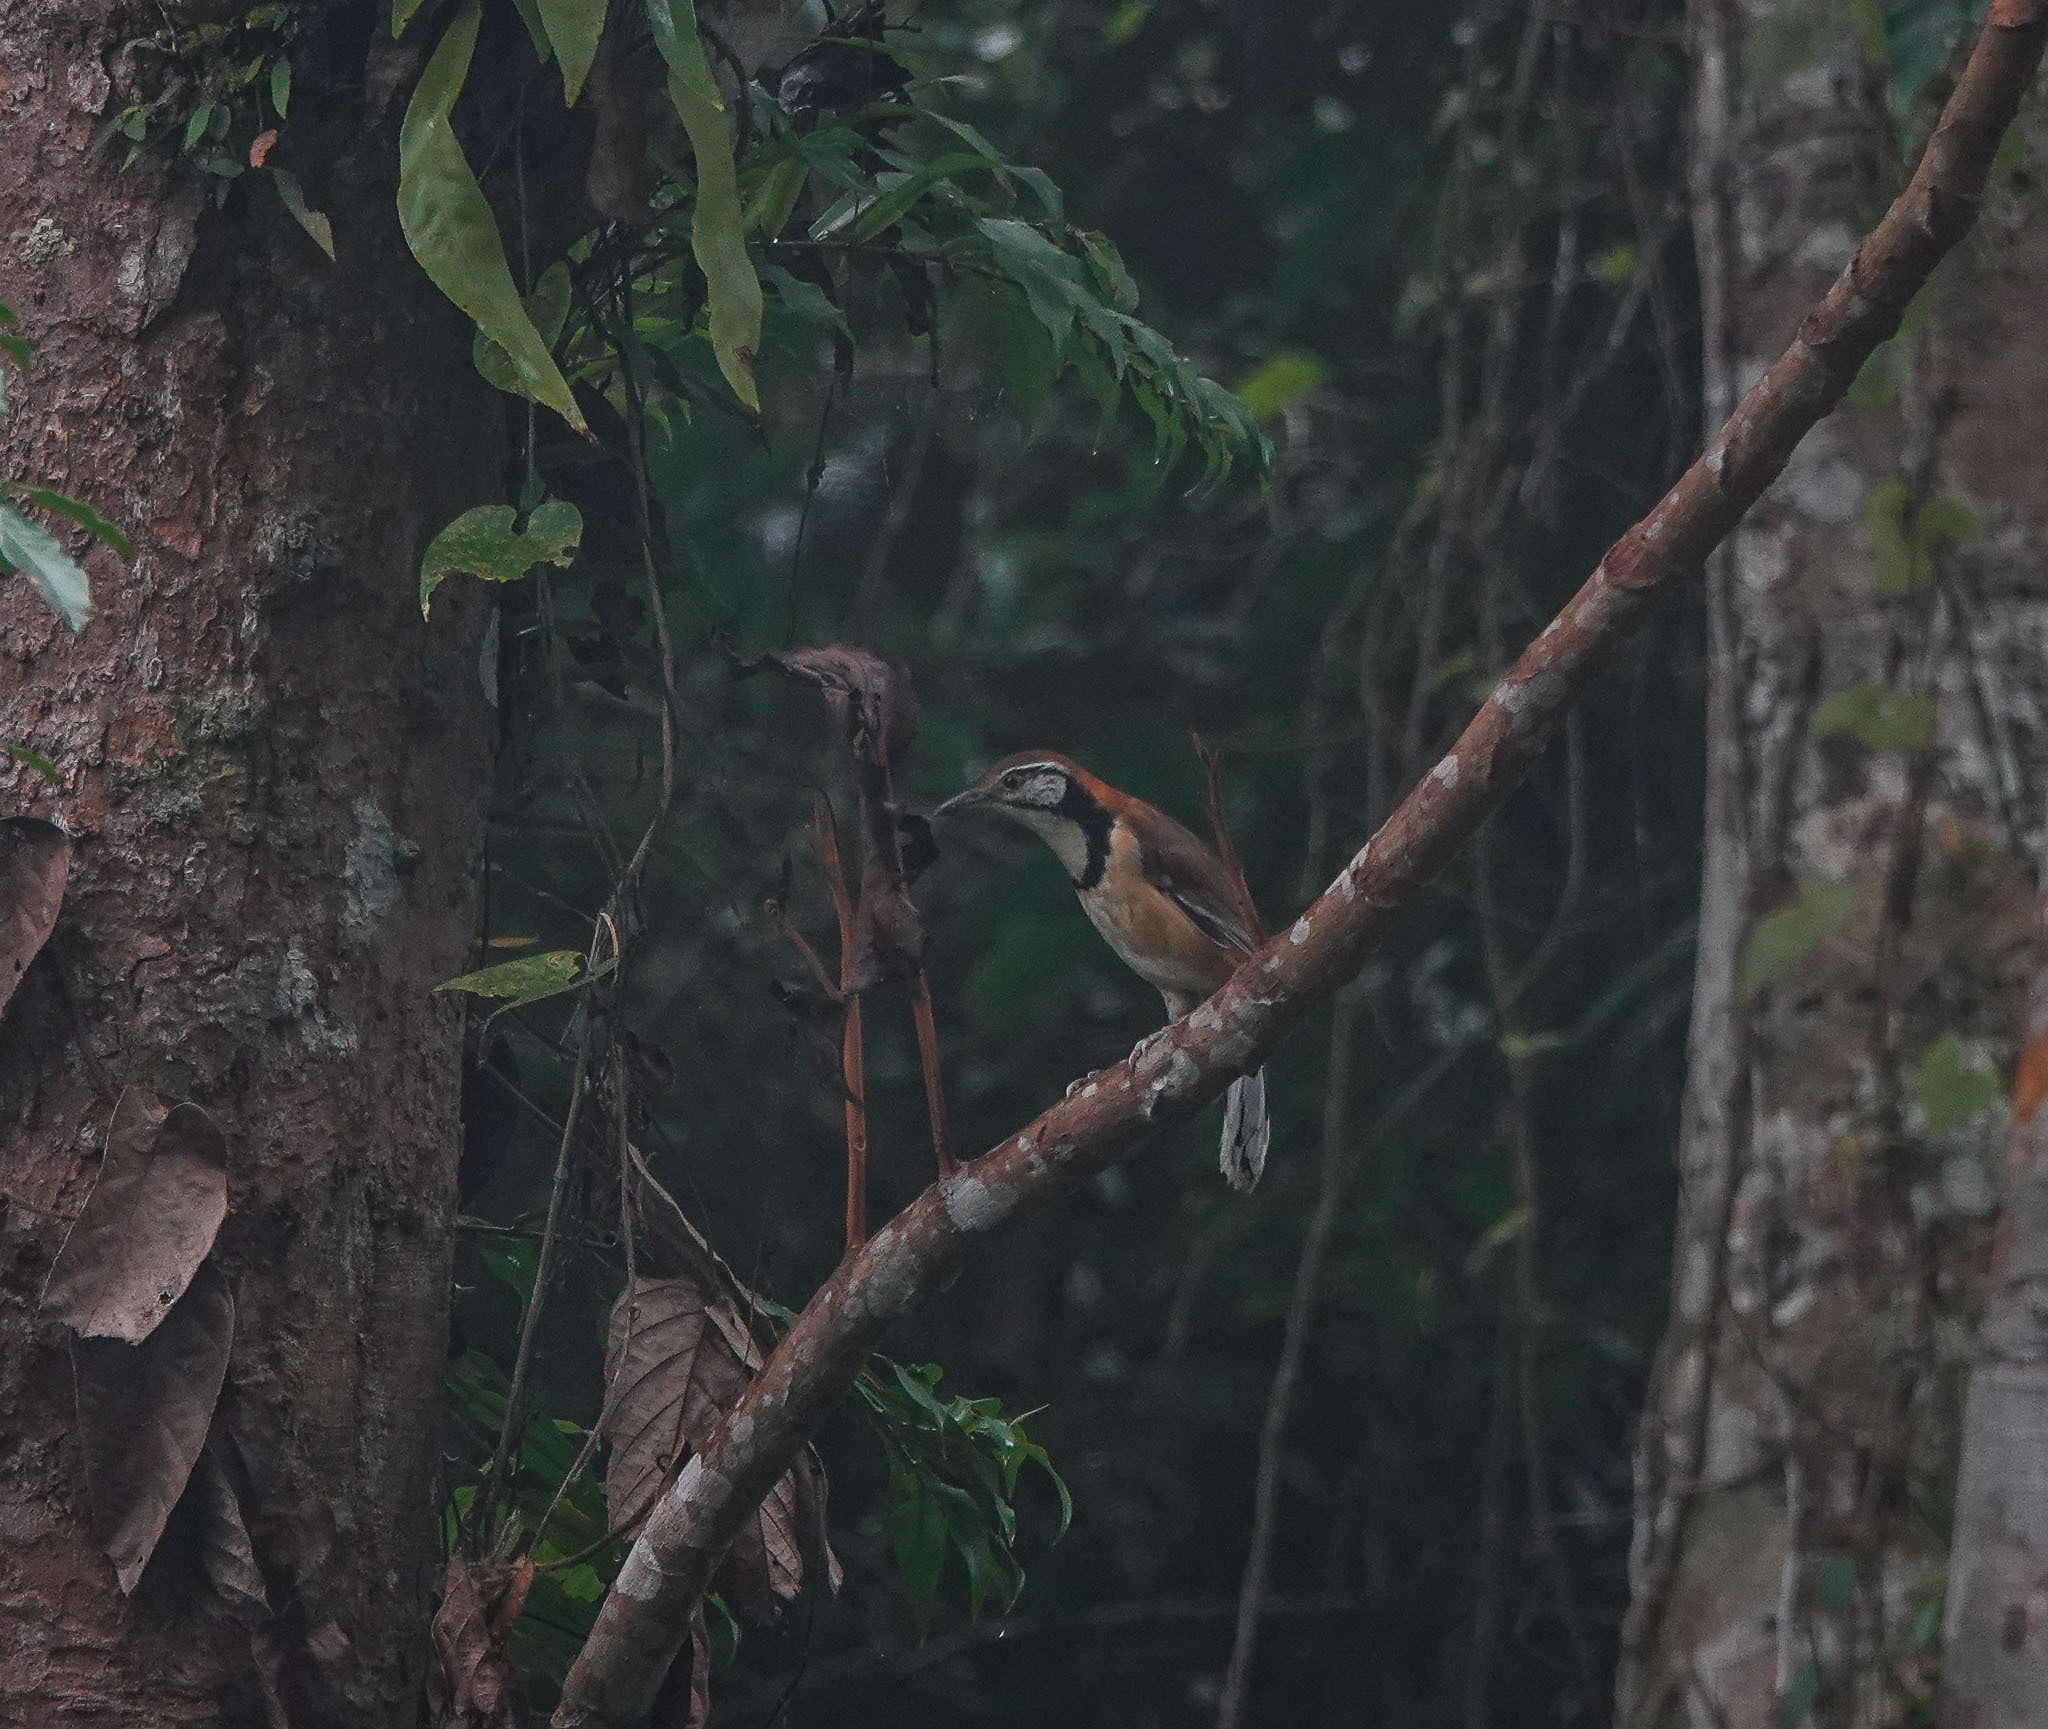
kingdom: Animalia
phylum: Chordata
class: Aves
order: Passeriformes
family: Leiothrichidae
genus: Garrulax
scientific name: Garrulax pectoralis
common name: Greater necklaced laughingthrush
